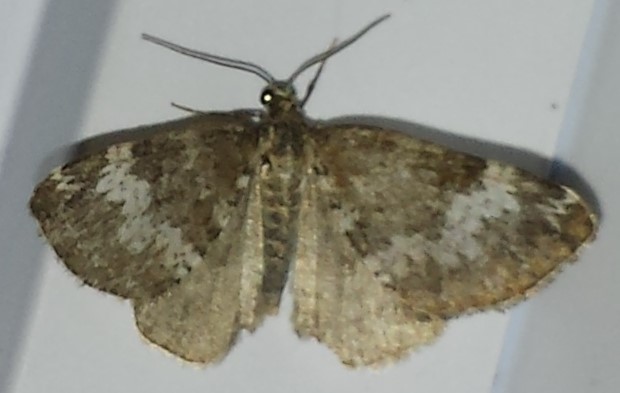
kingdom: Animalia
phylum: Arthropoda
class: Insecta
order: Lepidoptera
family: Geometridae
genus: Perizoma
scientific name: Perizoma alchemillata
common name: Small rivulet
